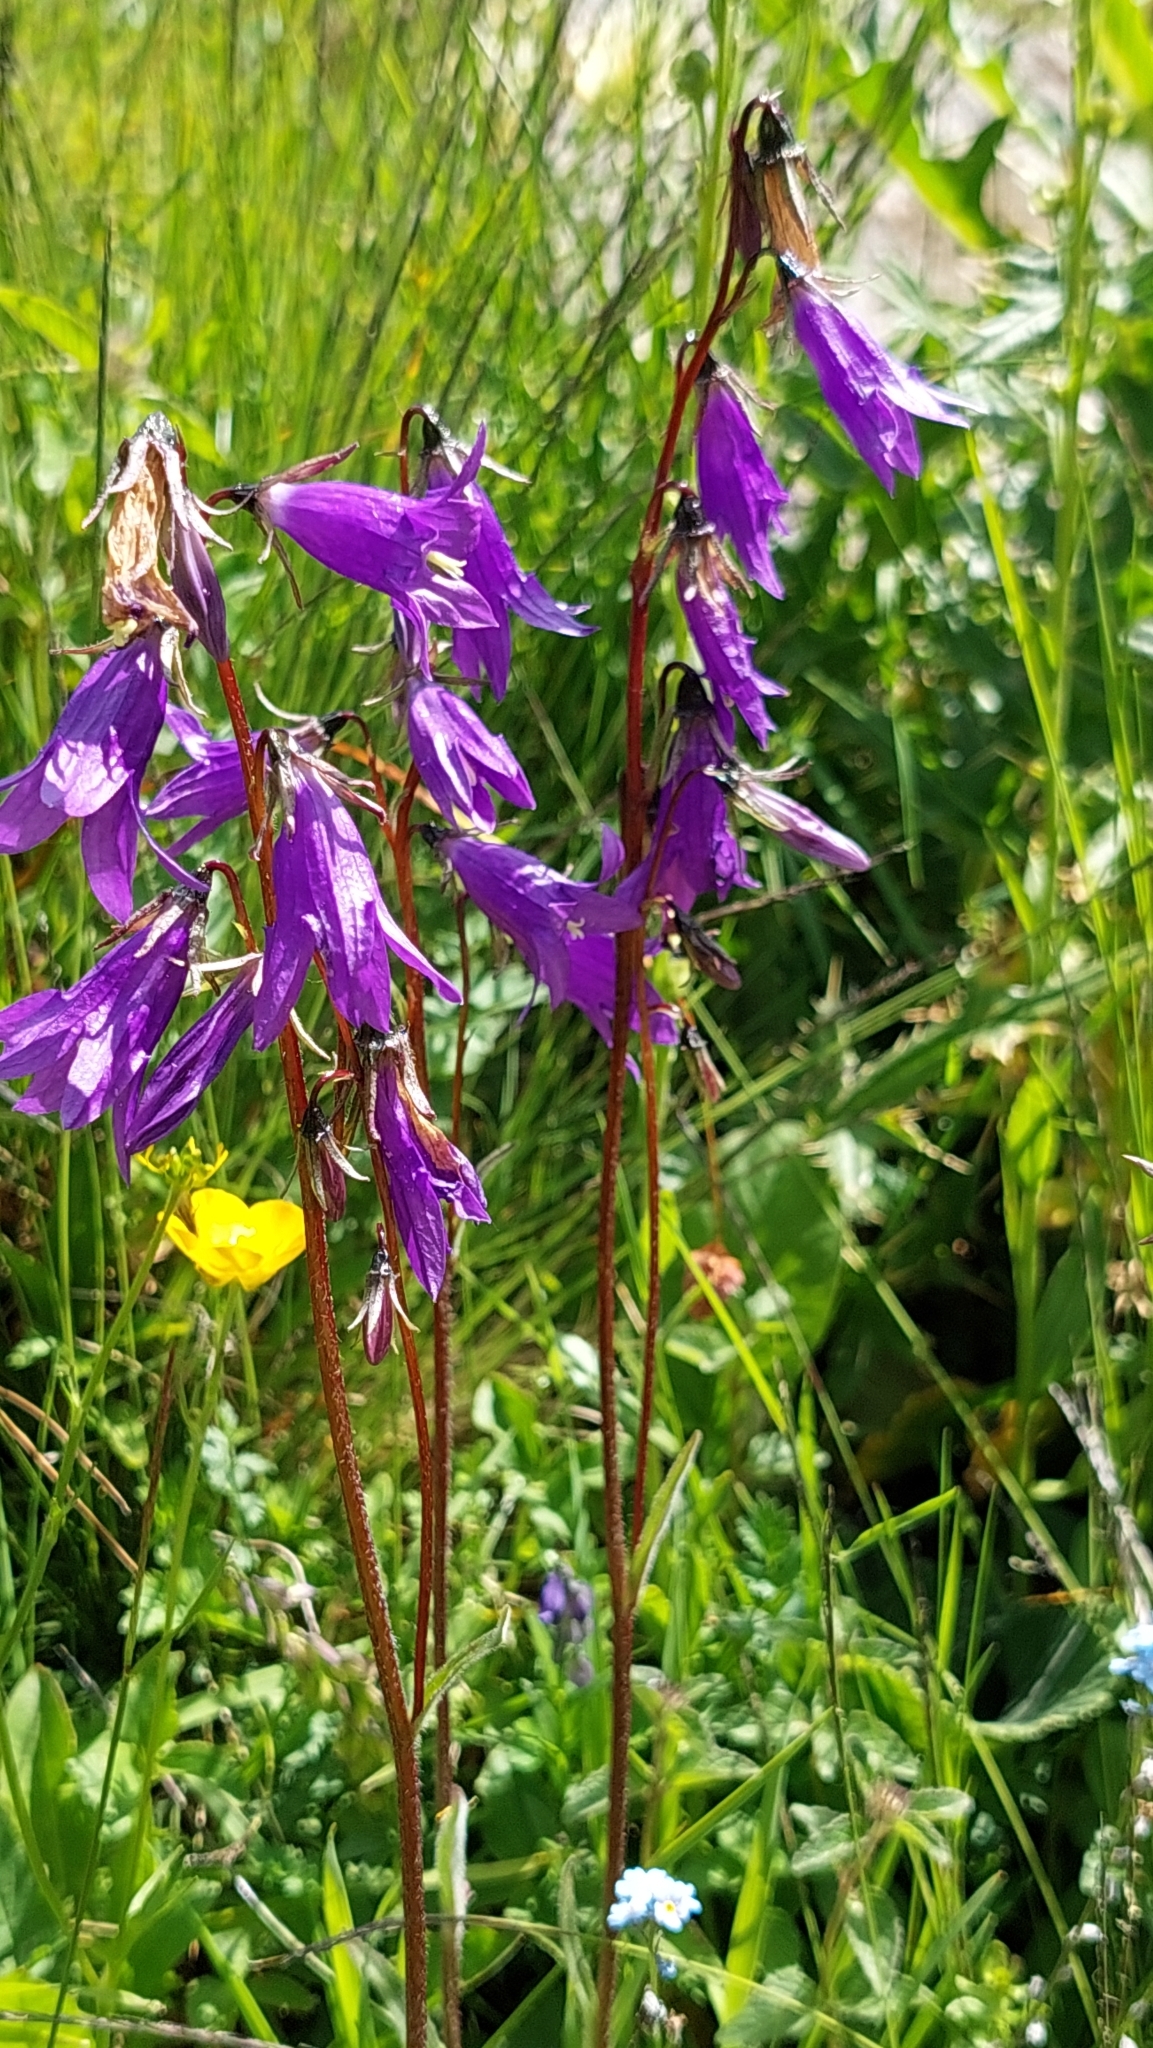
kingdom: Plantae
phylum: Tracheophyta
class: Magnoliopsida
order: Asterales
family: Campanulaceae
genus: Campanula
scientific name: Campanula collina
